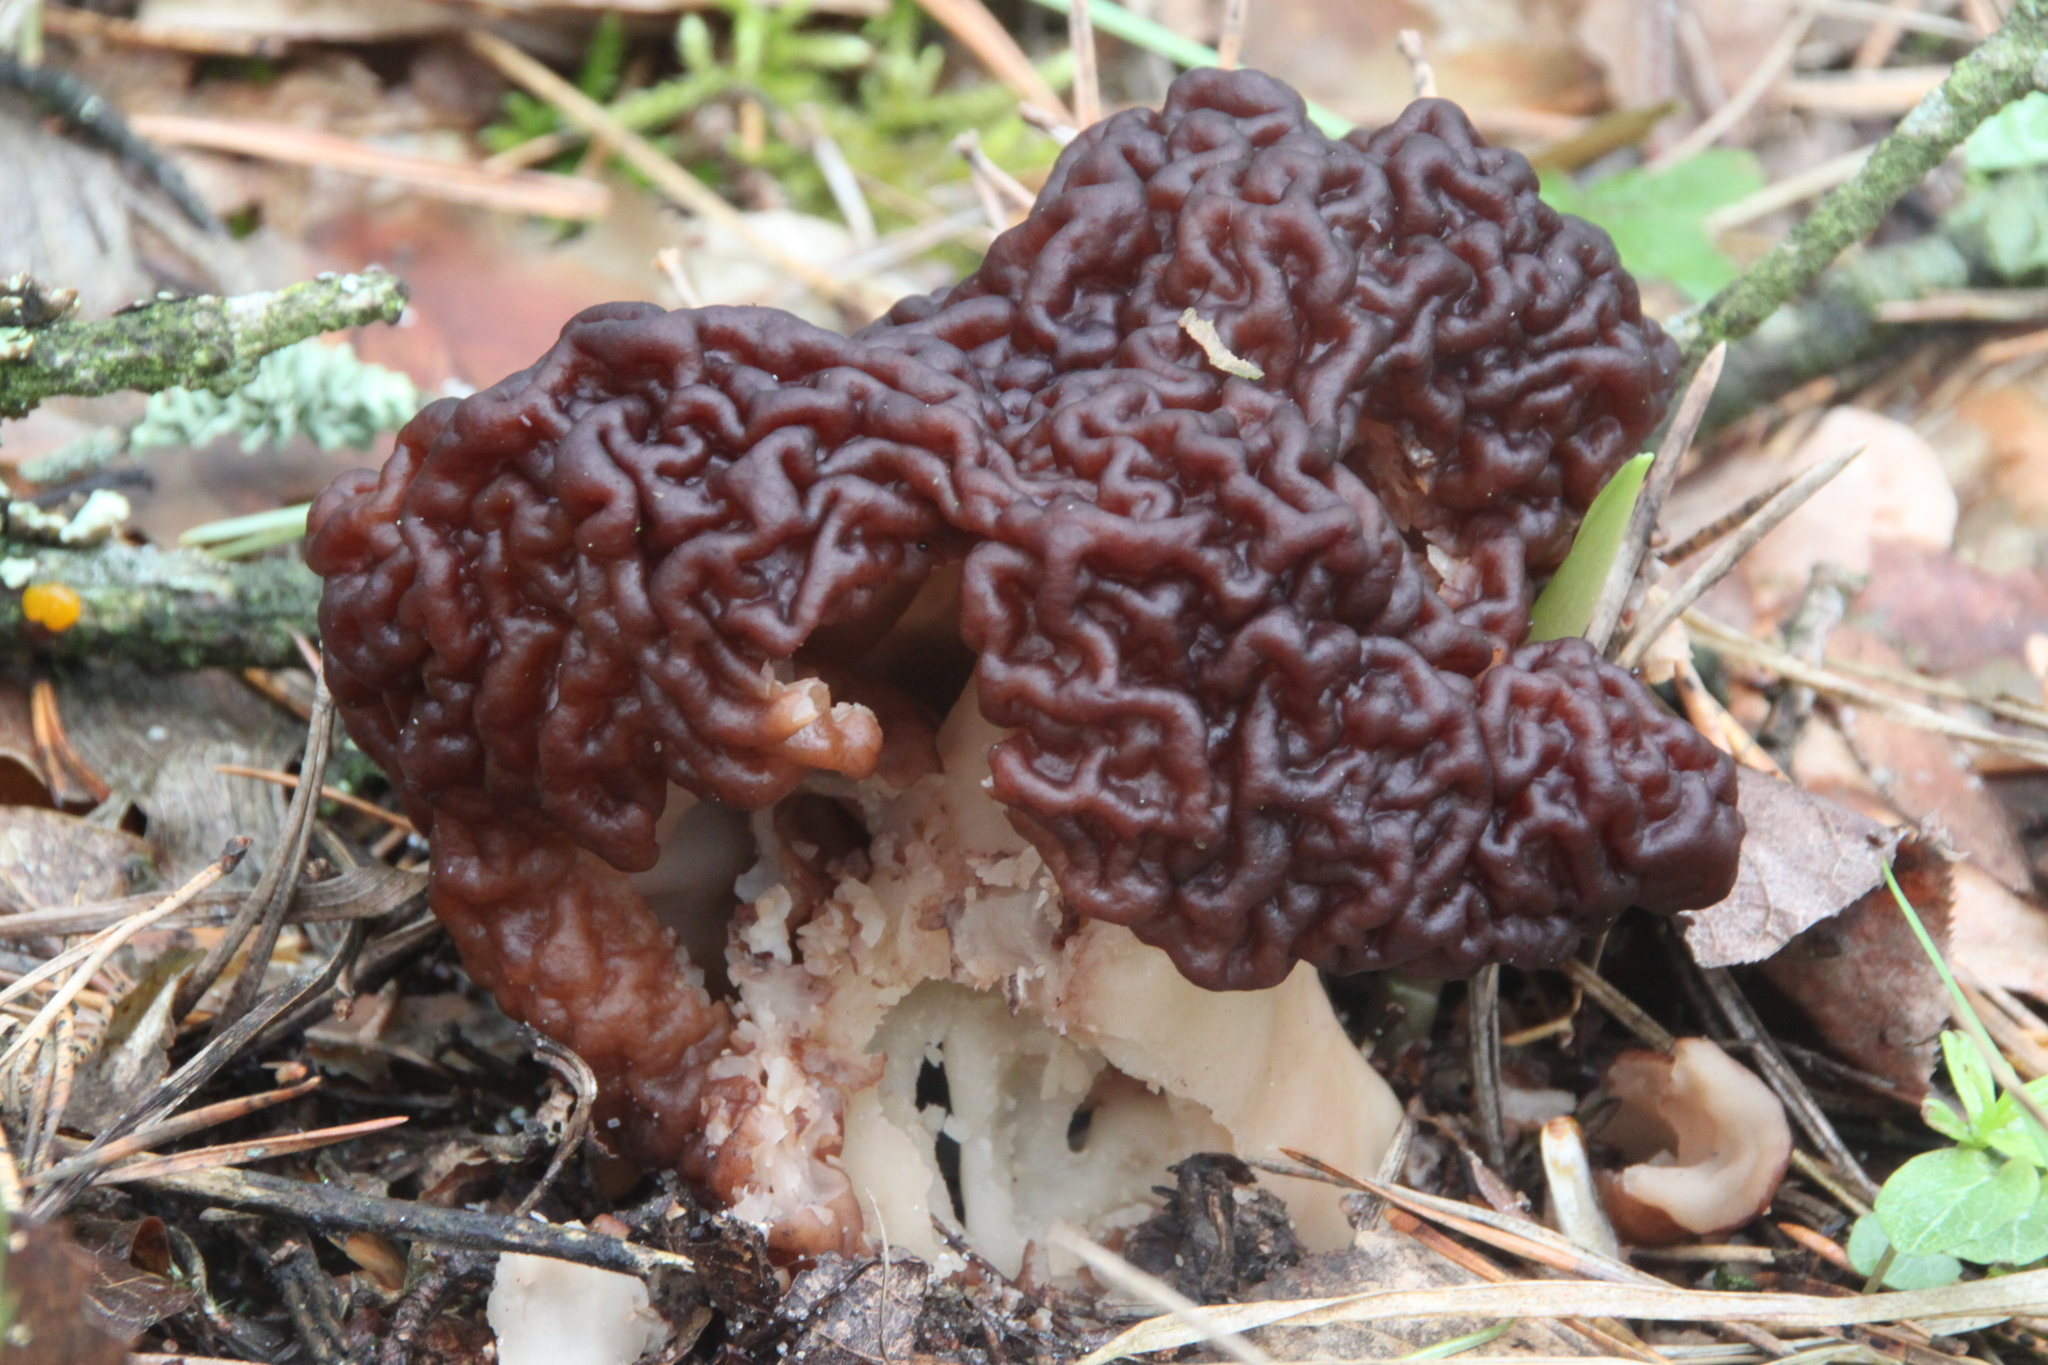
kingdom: Fungi
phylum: Ascomycota
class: Pezizomycetes
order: Pezizales
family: Discinaceae
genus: Gyromitra
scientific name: Gyromitra esculenta
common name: False morel
